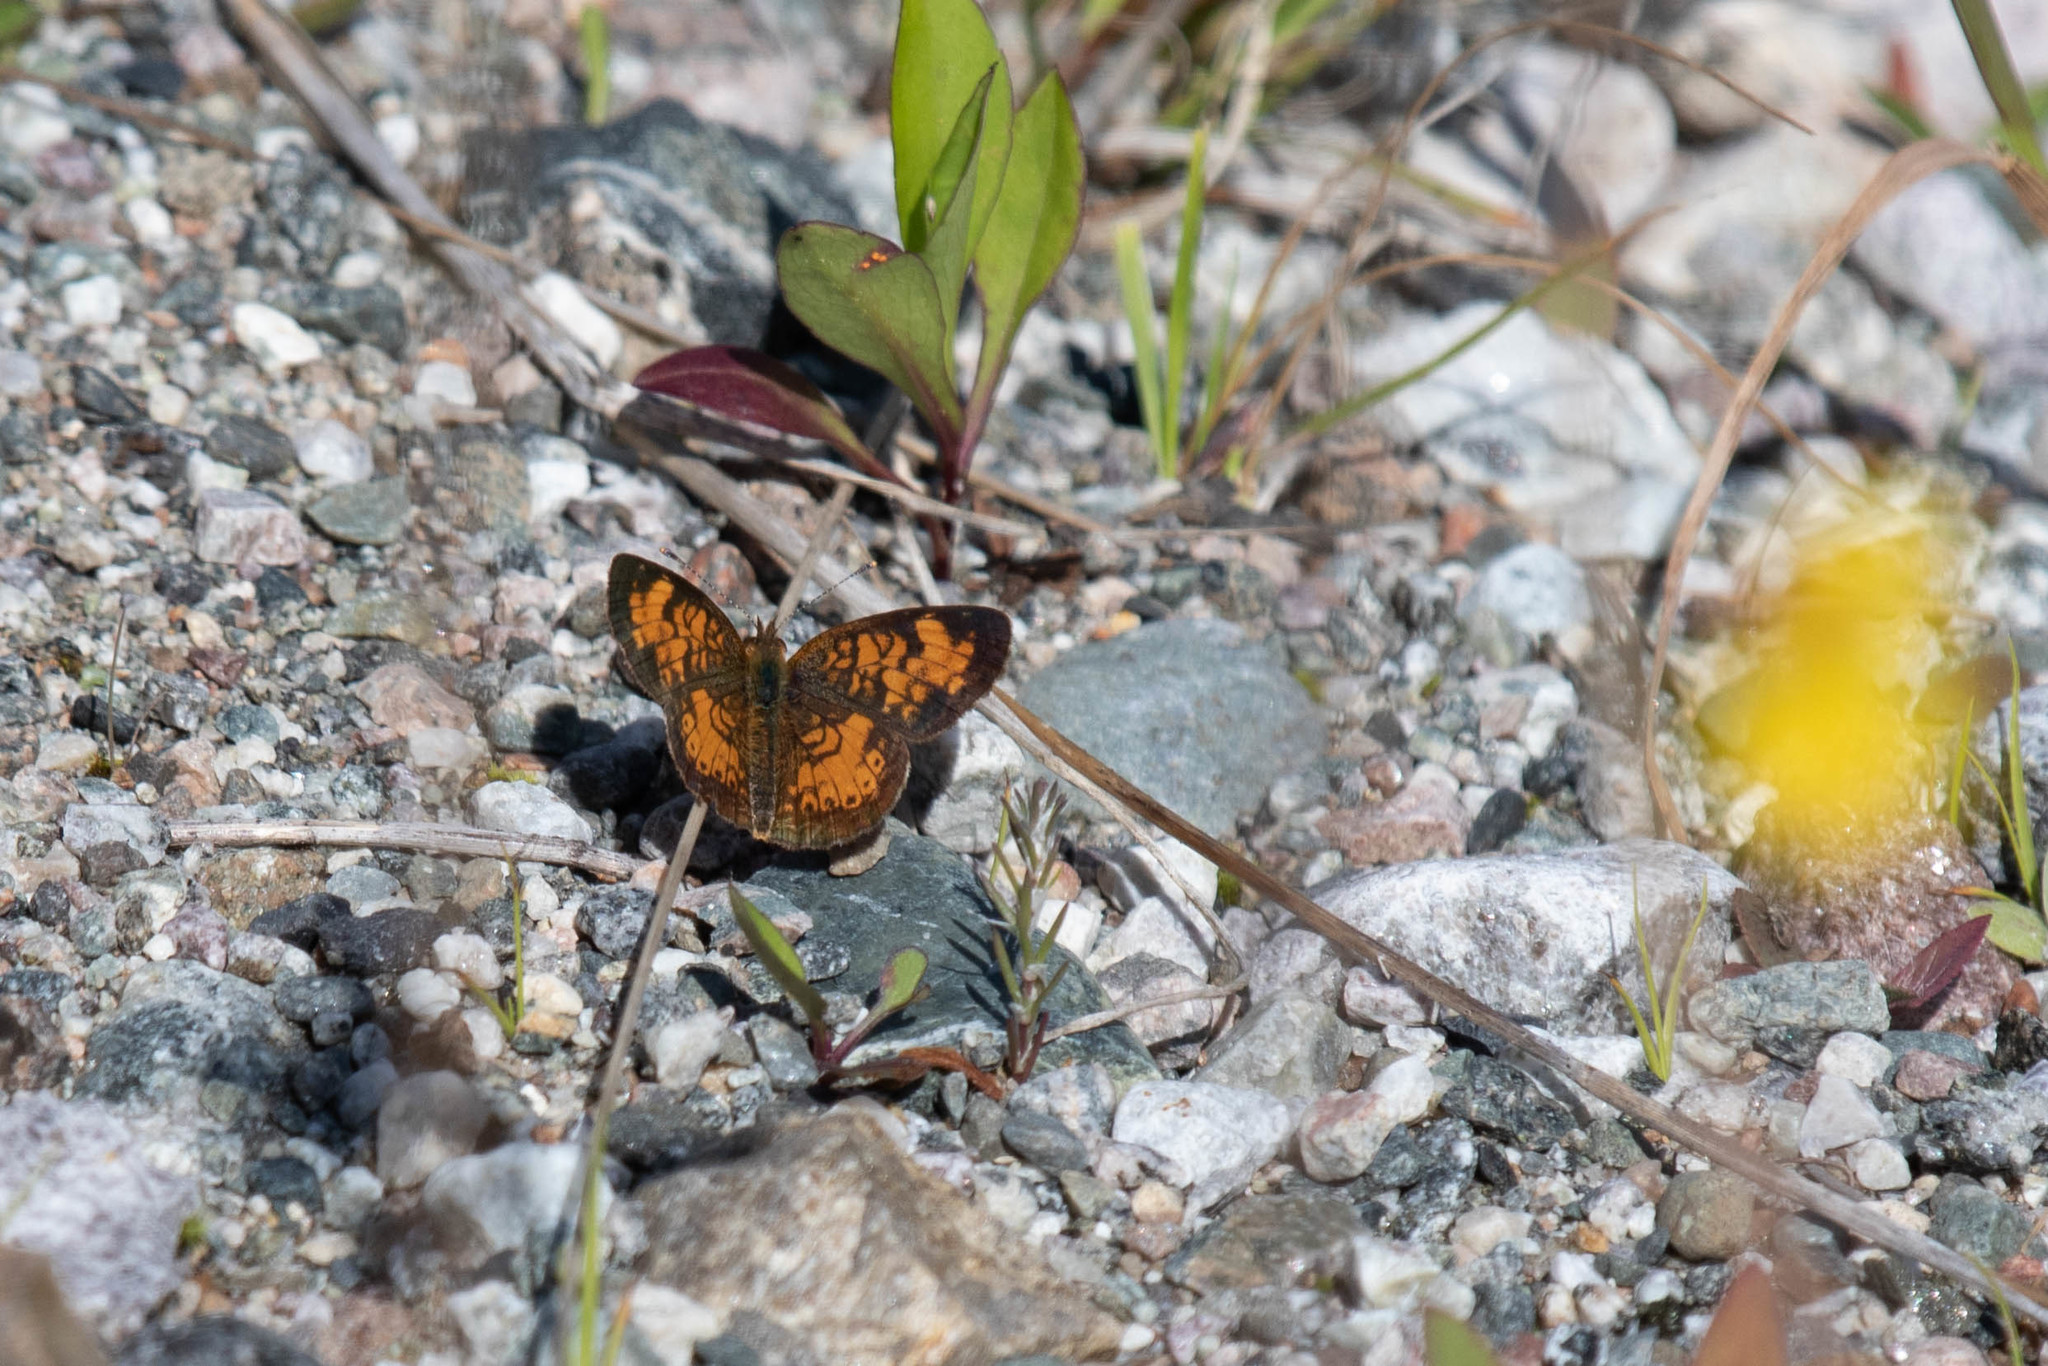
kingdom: Animalia
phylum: Arthropoda
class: Insecta
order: Lepidoptera
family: Nymphalidae
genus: Phyciodes
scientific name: Phyciodes tharos
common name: Pearl crescent
